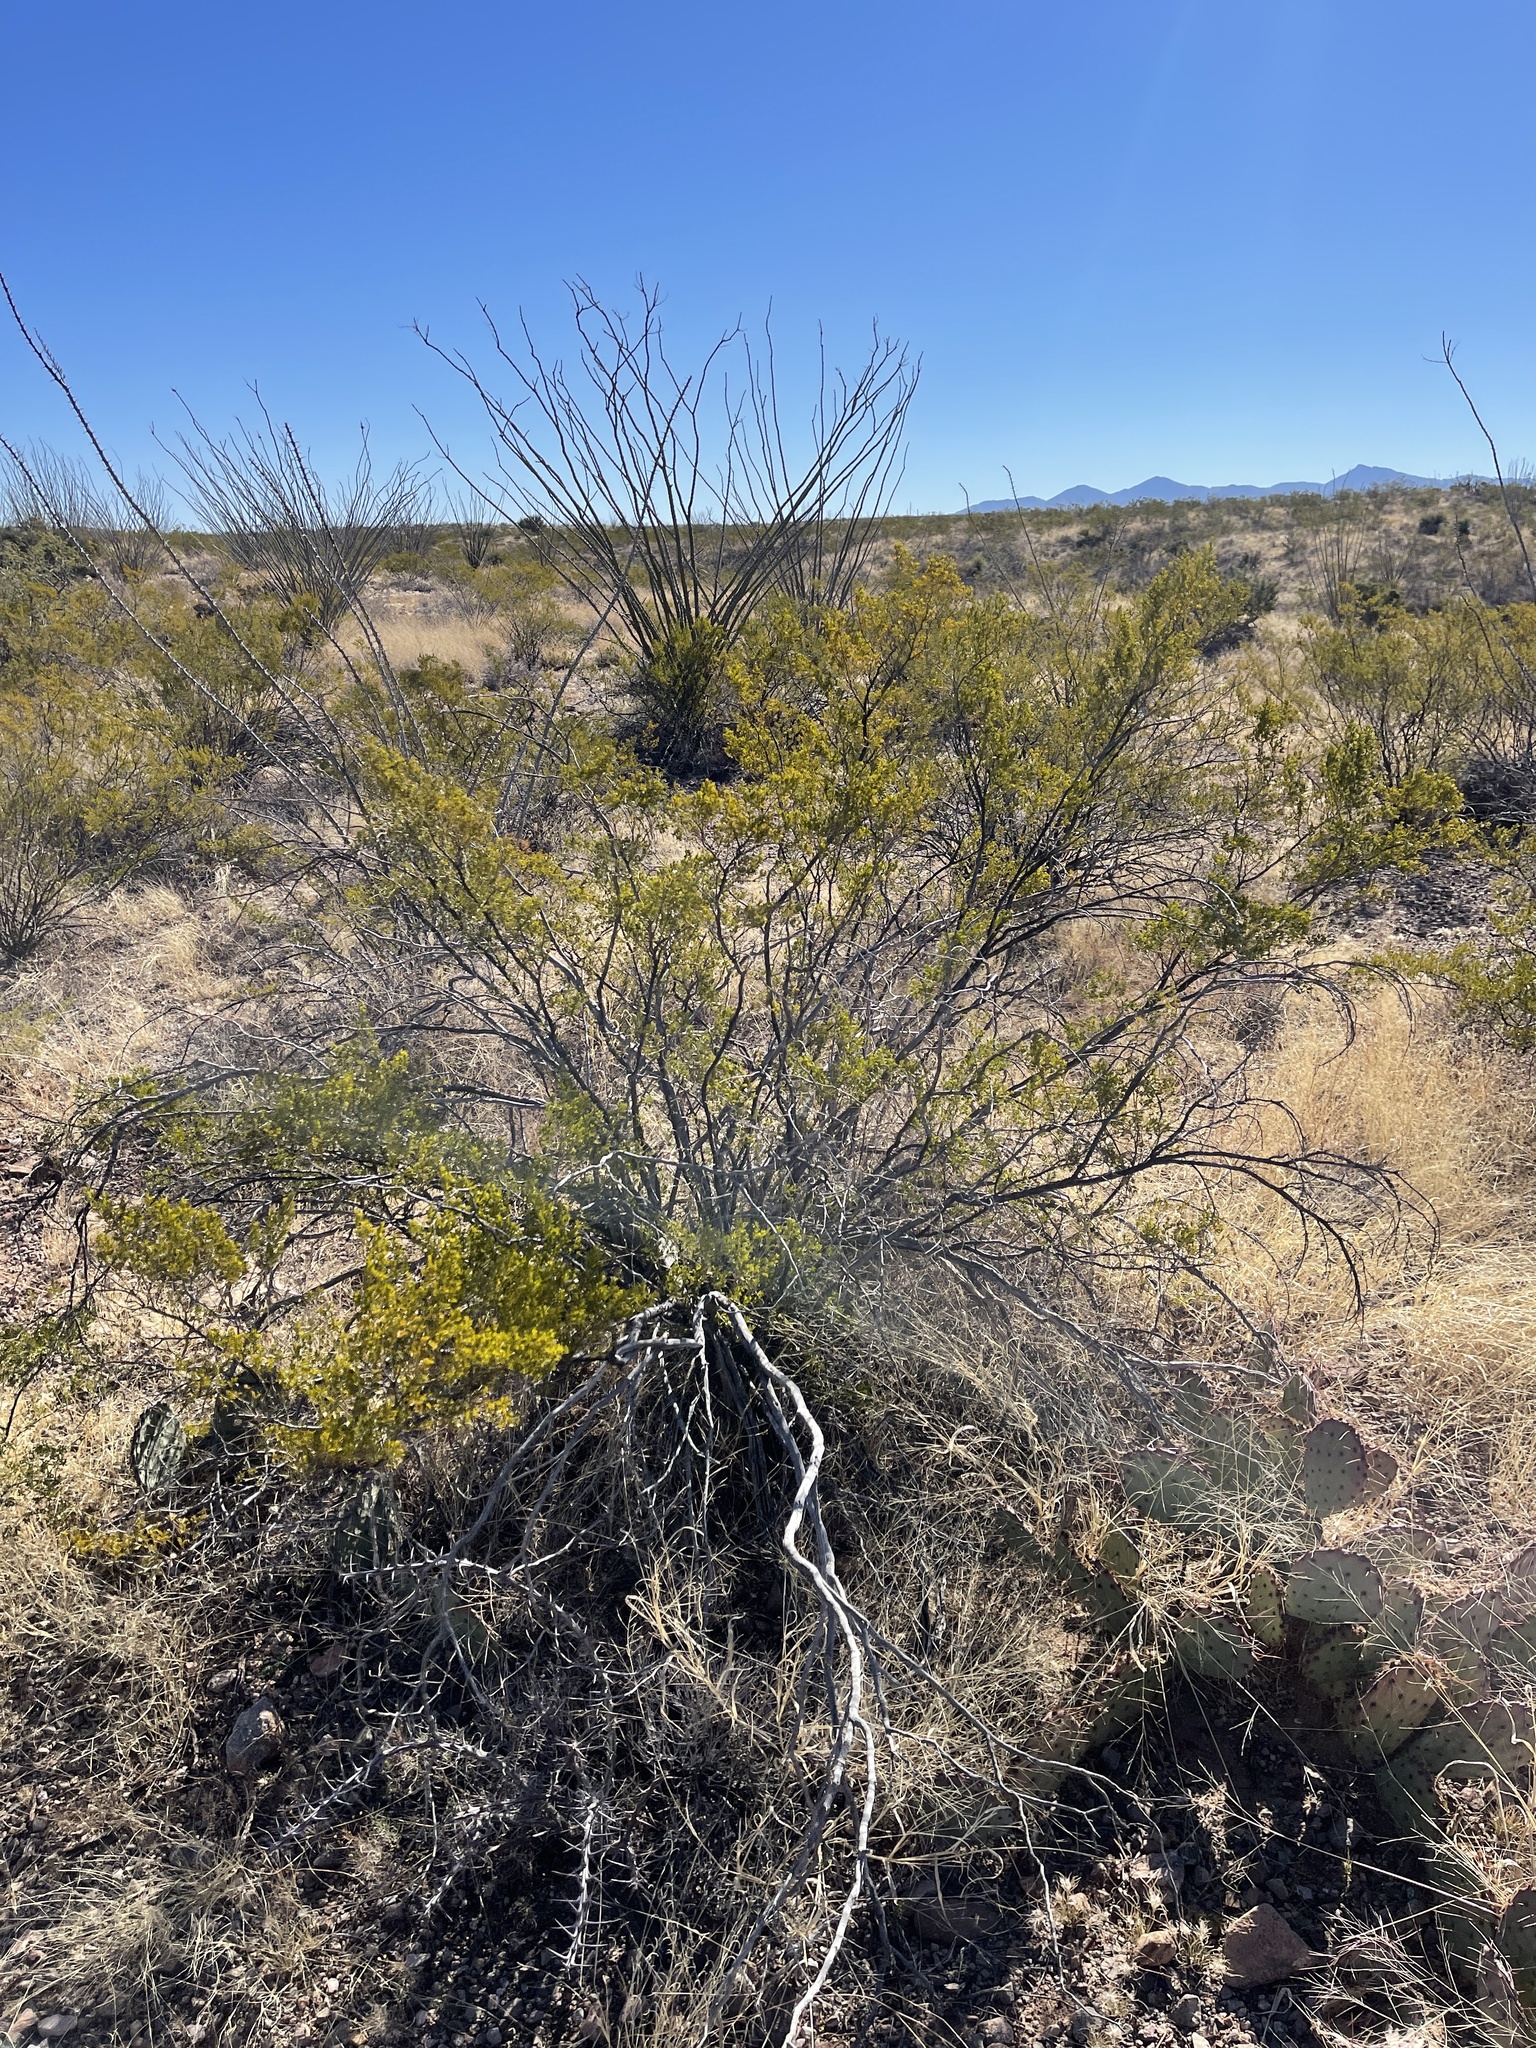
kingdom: Plantae
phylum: Tracheophyta
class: Magnoliopsida
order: Zygophyllales
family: Zygophyllaceae
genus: Larrea
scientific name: Larrea tridentata
